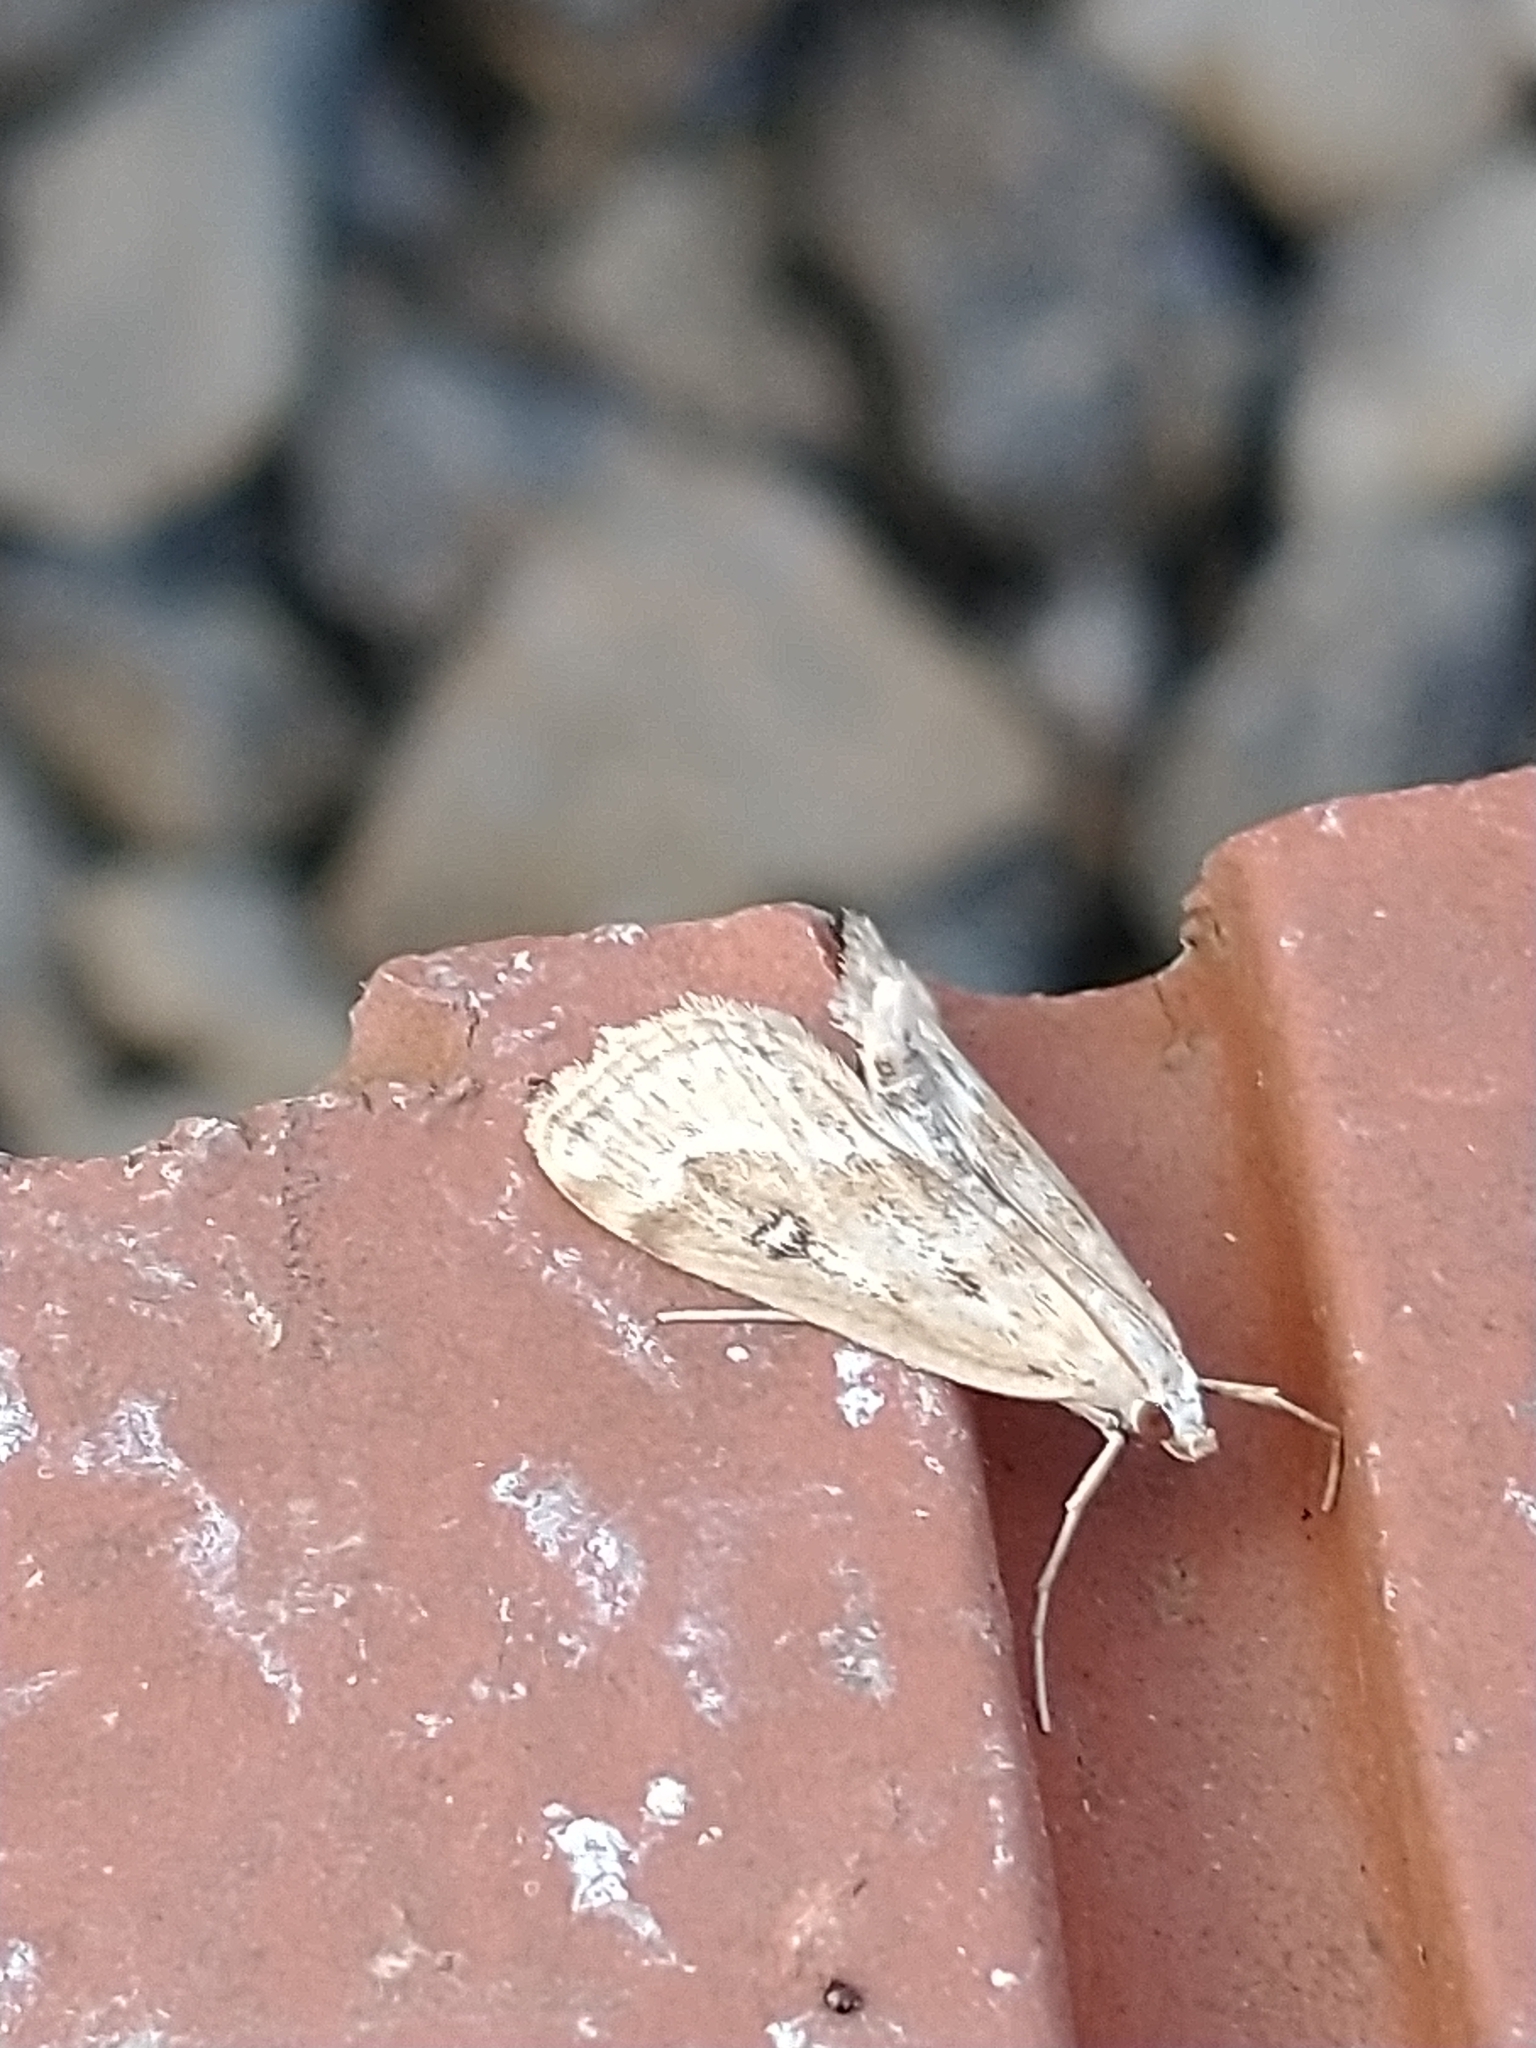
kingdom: Animalia
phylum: Arthropoda
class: Insecta
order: Lepidoptera
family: Crambidae
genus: Parapoynx
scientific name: Parapoynx stratiotata
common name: Ringed china-mark
